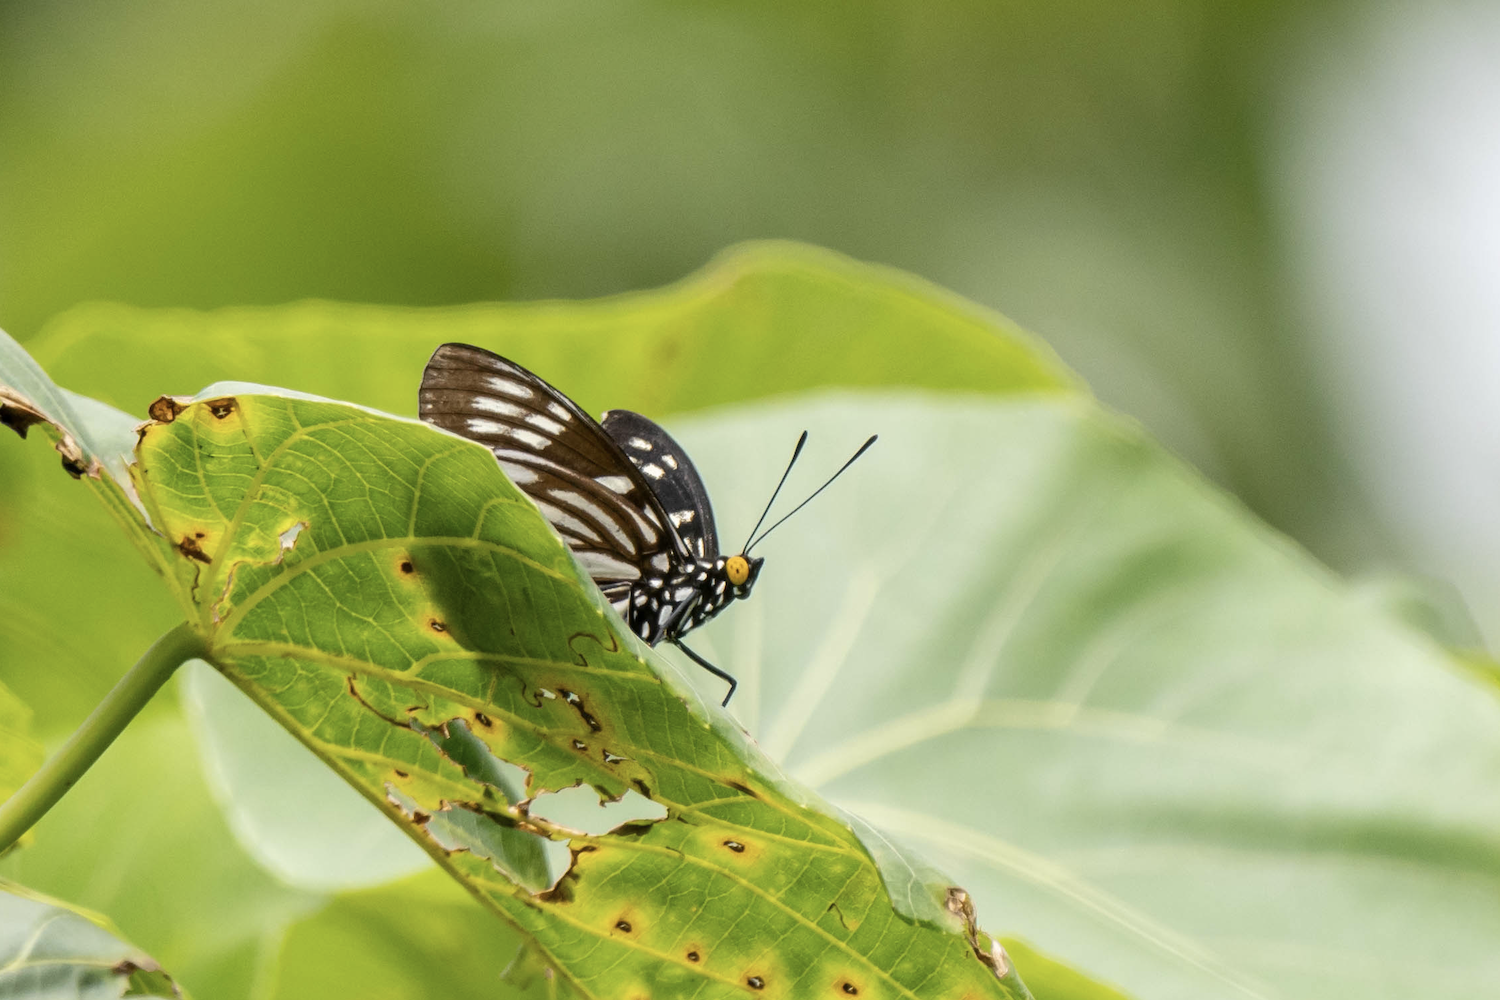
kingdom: Animalia
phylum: Arthropoda
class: Insecta
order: Lepidoptera
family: Nymphalidae
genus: Euripus
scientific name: Euripus nyctelius
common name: Courtesan
